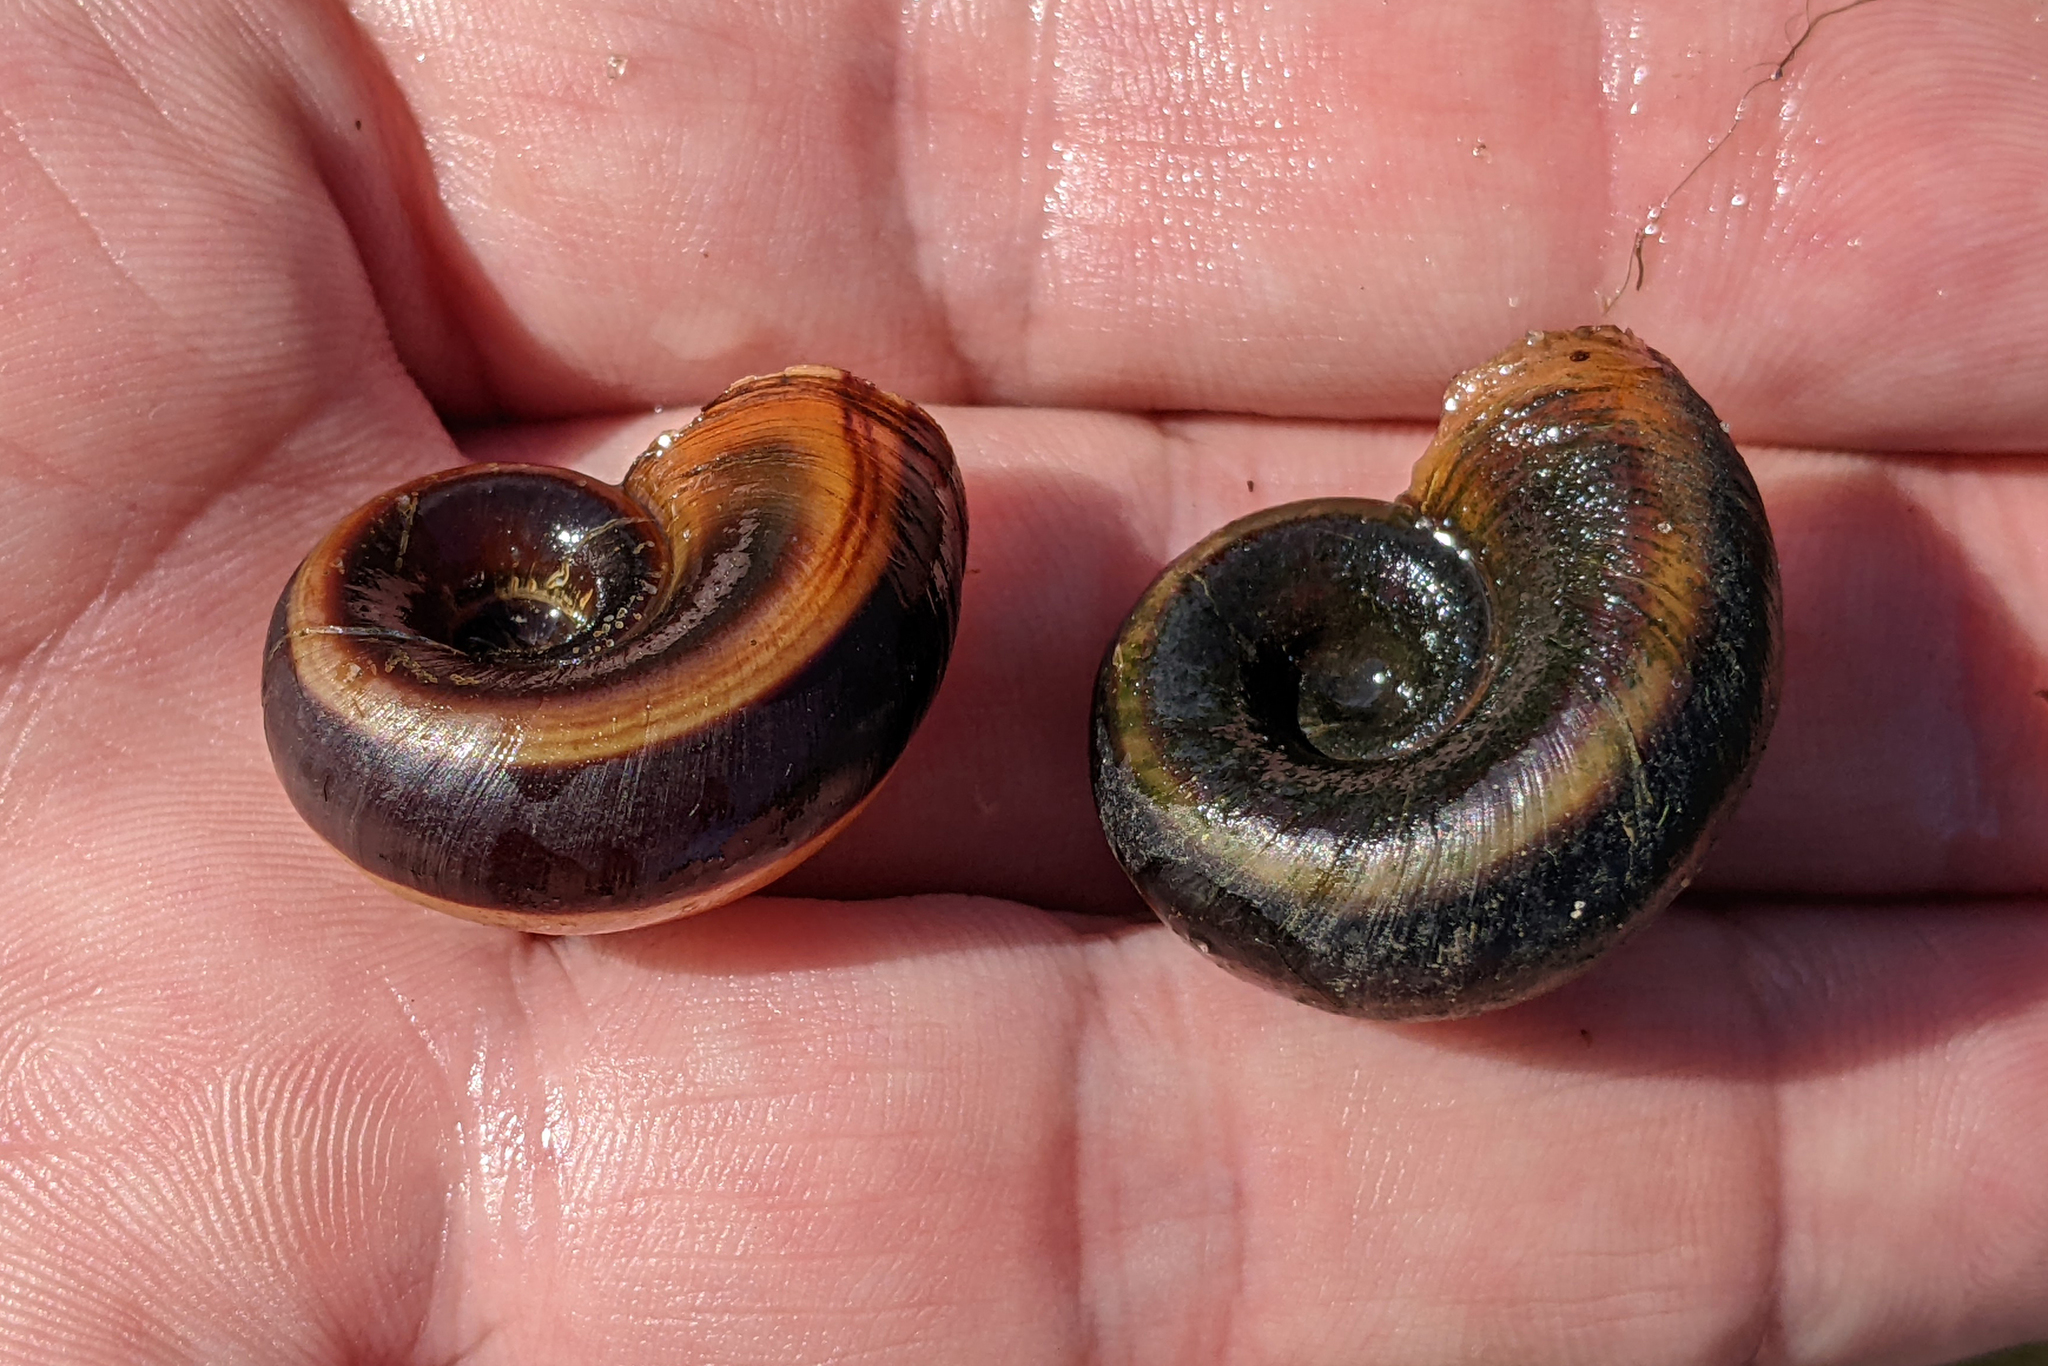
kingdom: Animalia
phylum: Mollusca
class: Gastropoda
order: Architaenioglossa
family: Ampullariidae
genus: Marisa
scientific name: Marisa cornuarietis
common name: Giant ramshorn snail
